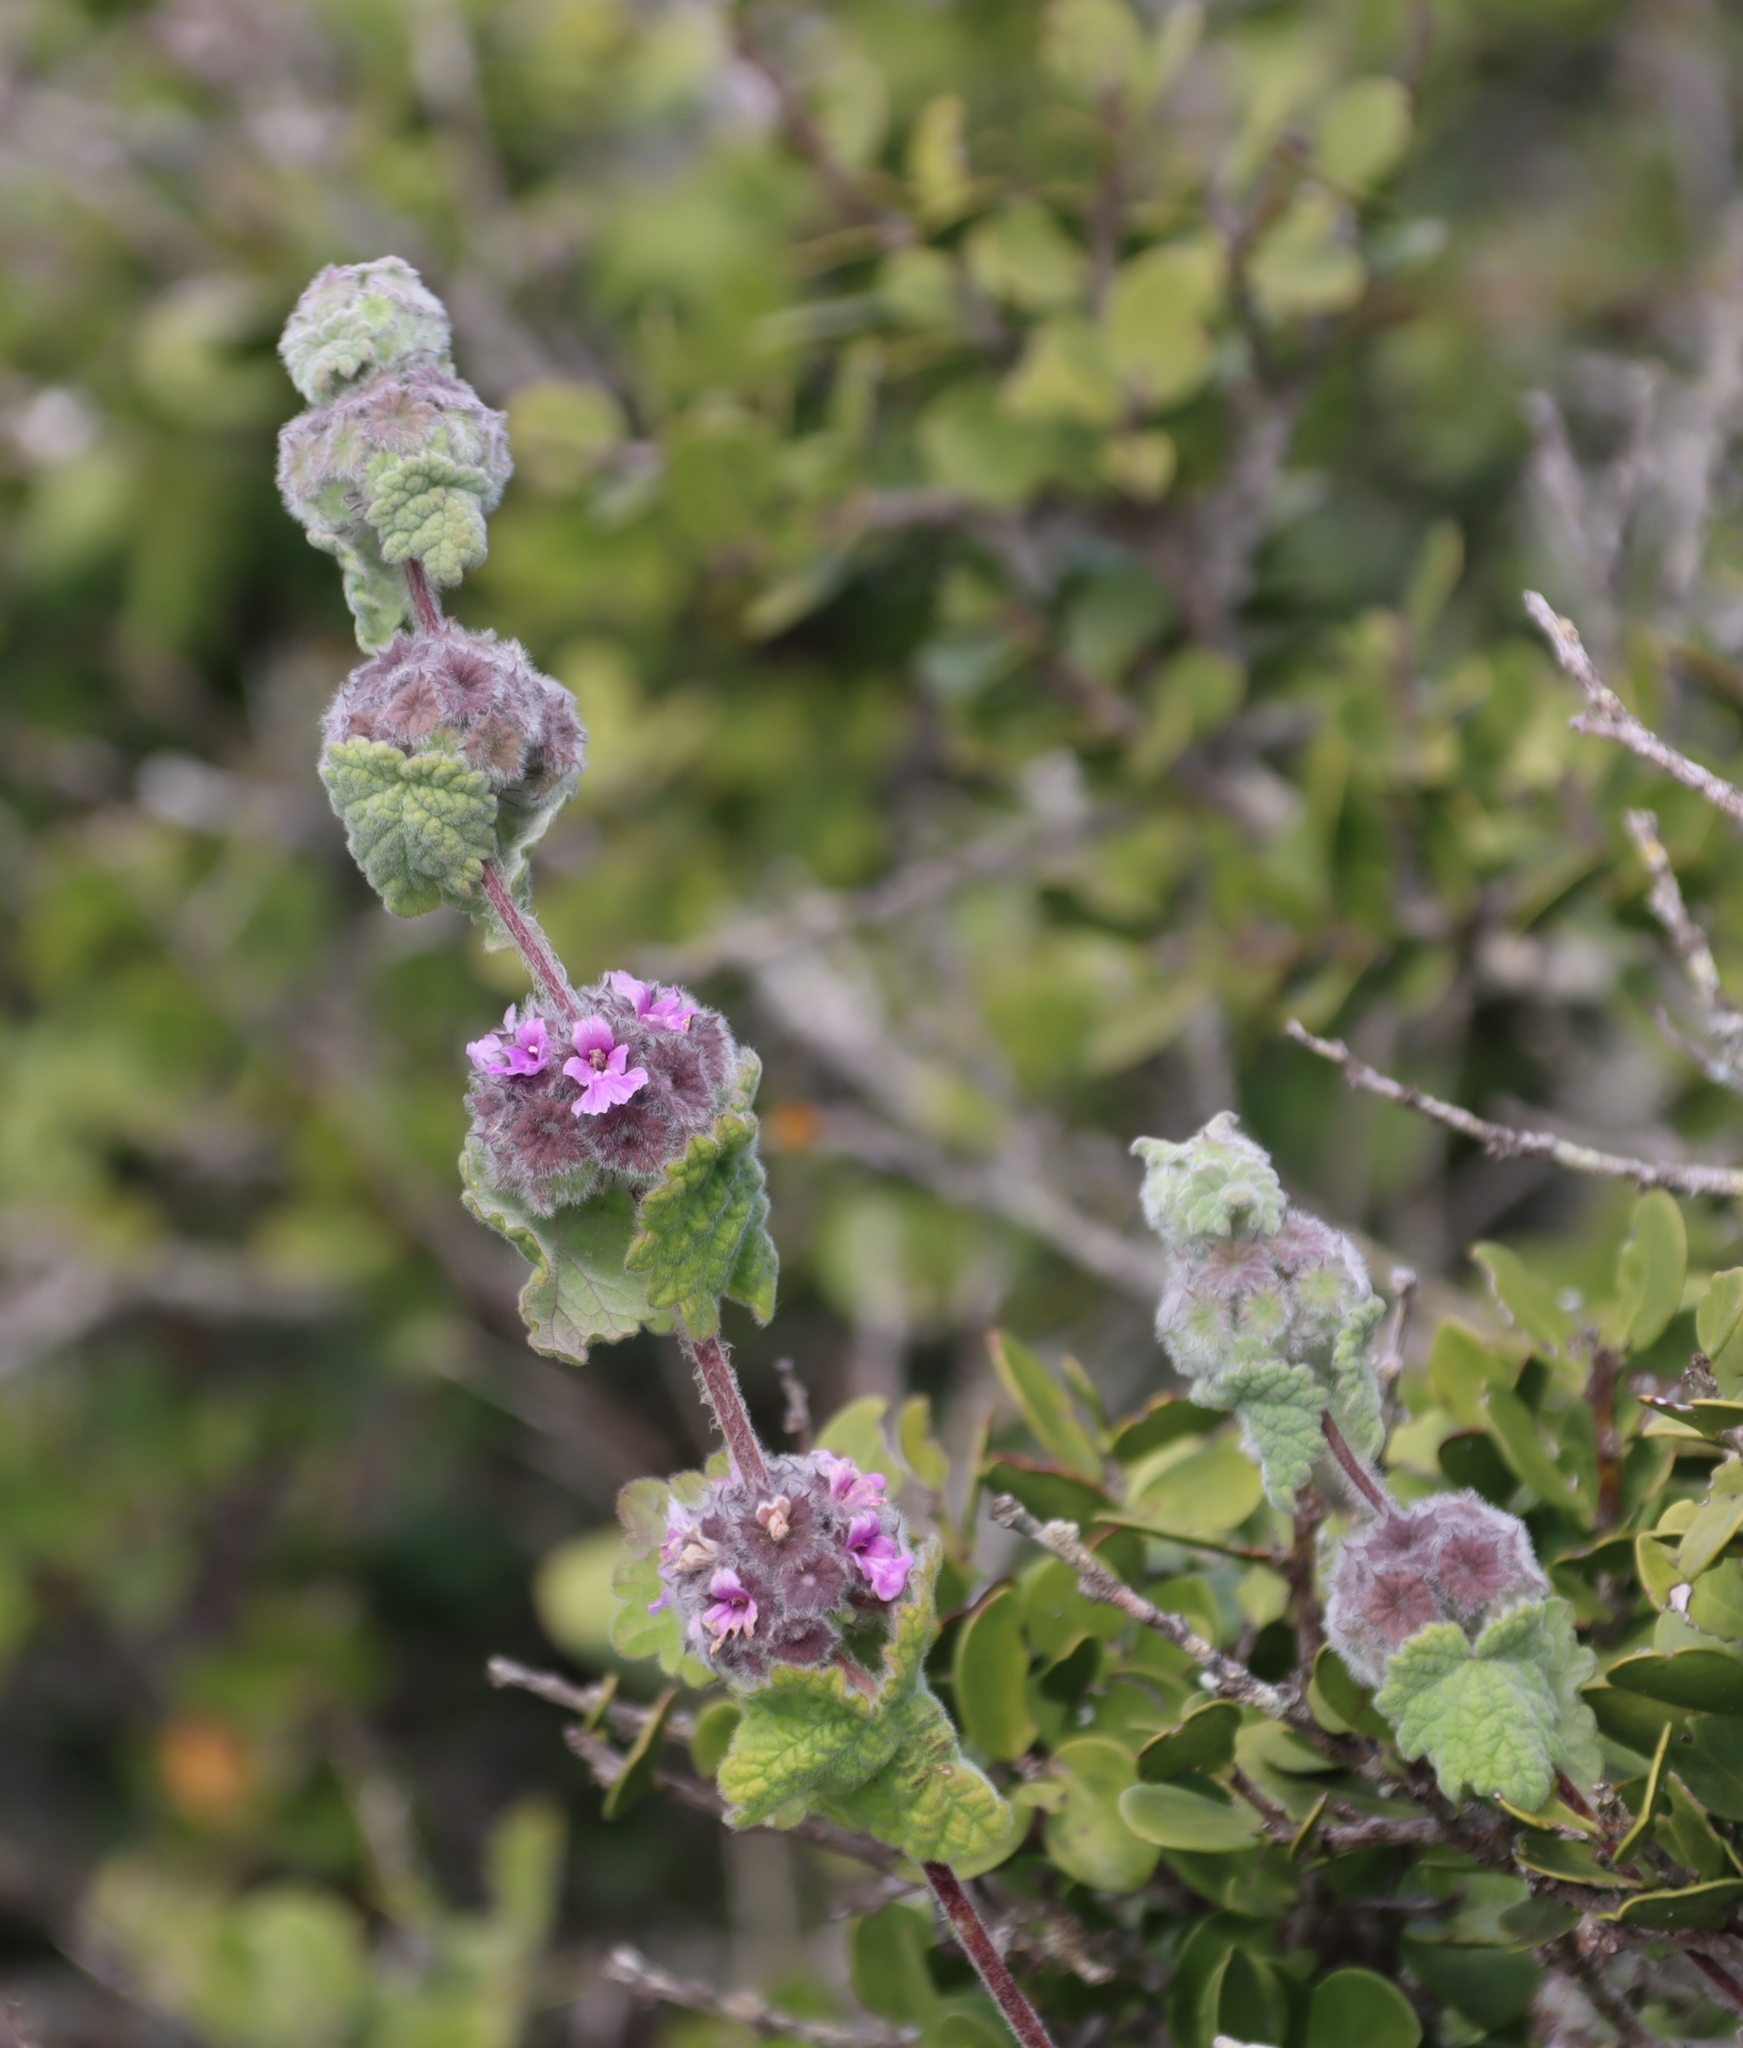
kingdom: Plantae
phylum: Tracheophyta
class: Magnoliopsida
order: Lamiales
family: Lamiaceae
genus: Pseudodictamnus
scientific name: Pseudodictamnus africanus
